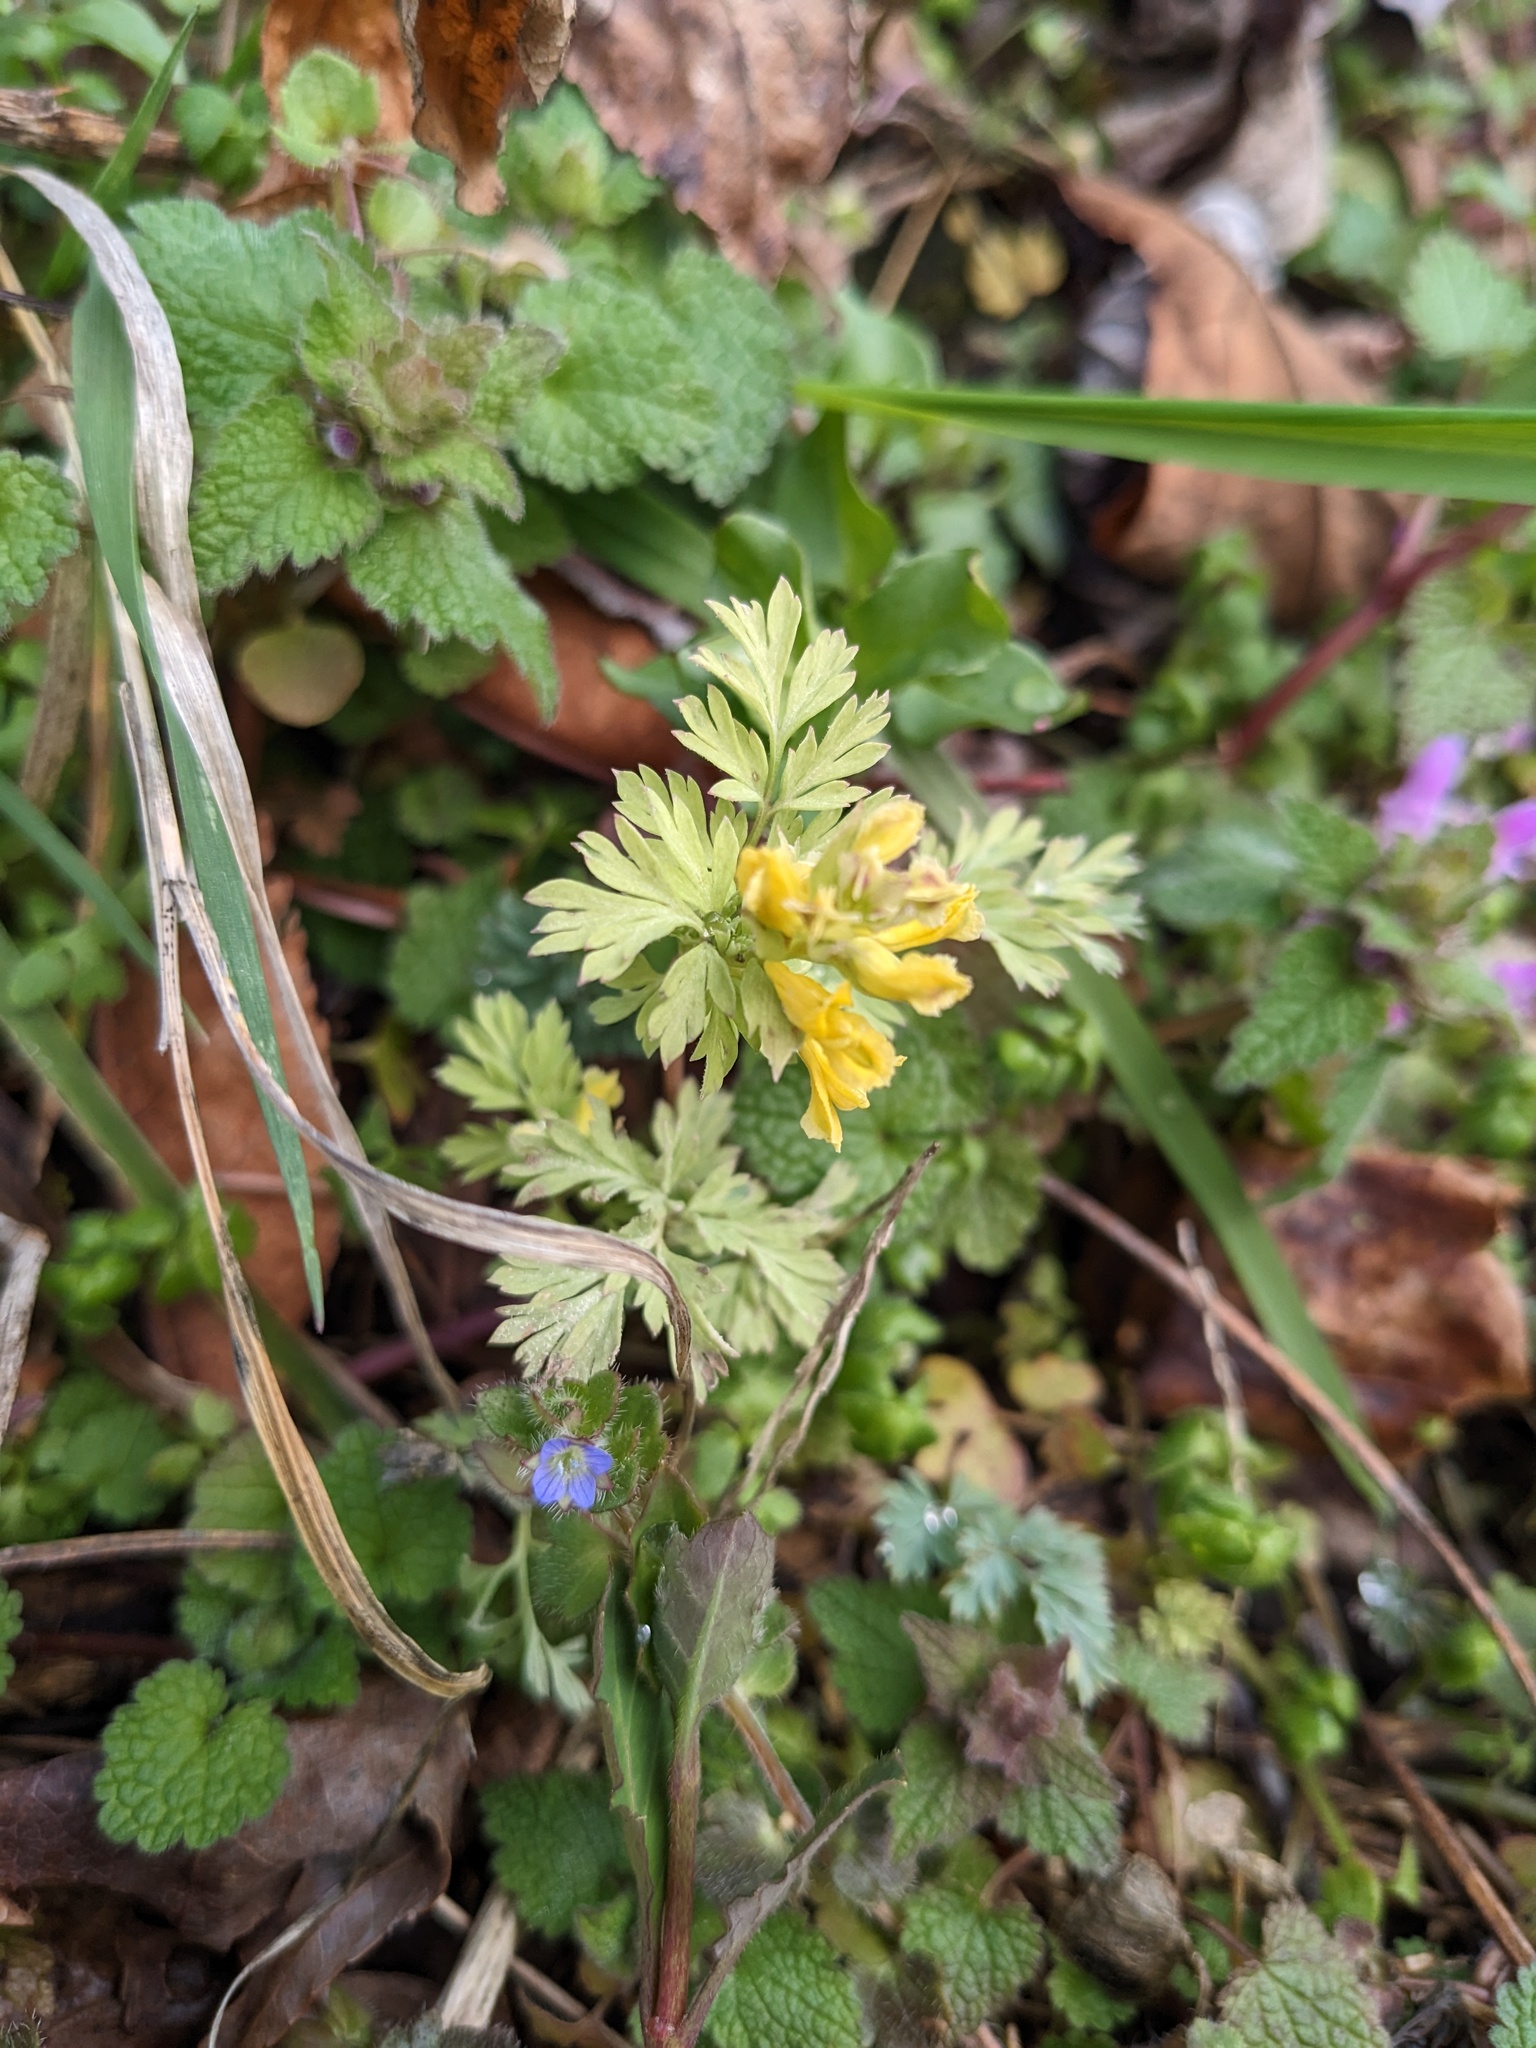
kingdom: Plantae
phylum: Tracheophyta
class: Magnoliopsida
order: Ranunculales
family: Papaveraceae
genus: Corydalis
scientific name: Corydalis flavula
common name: Yellow corydalis
